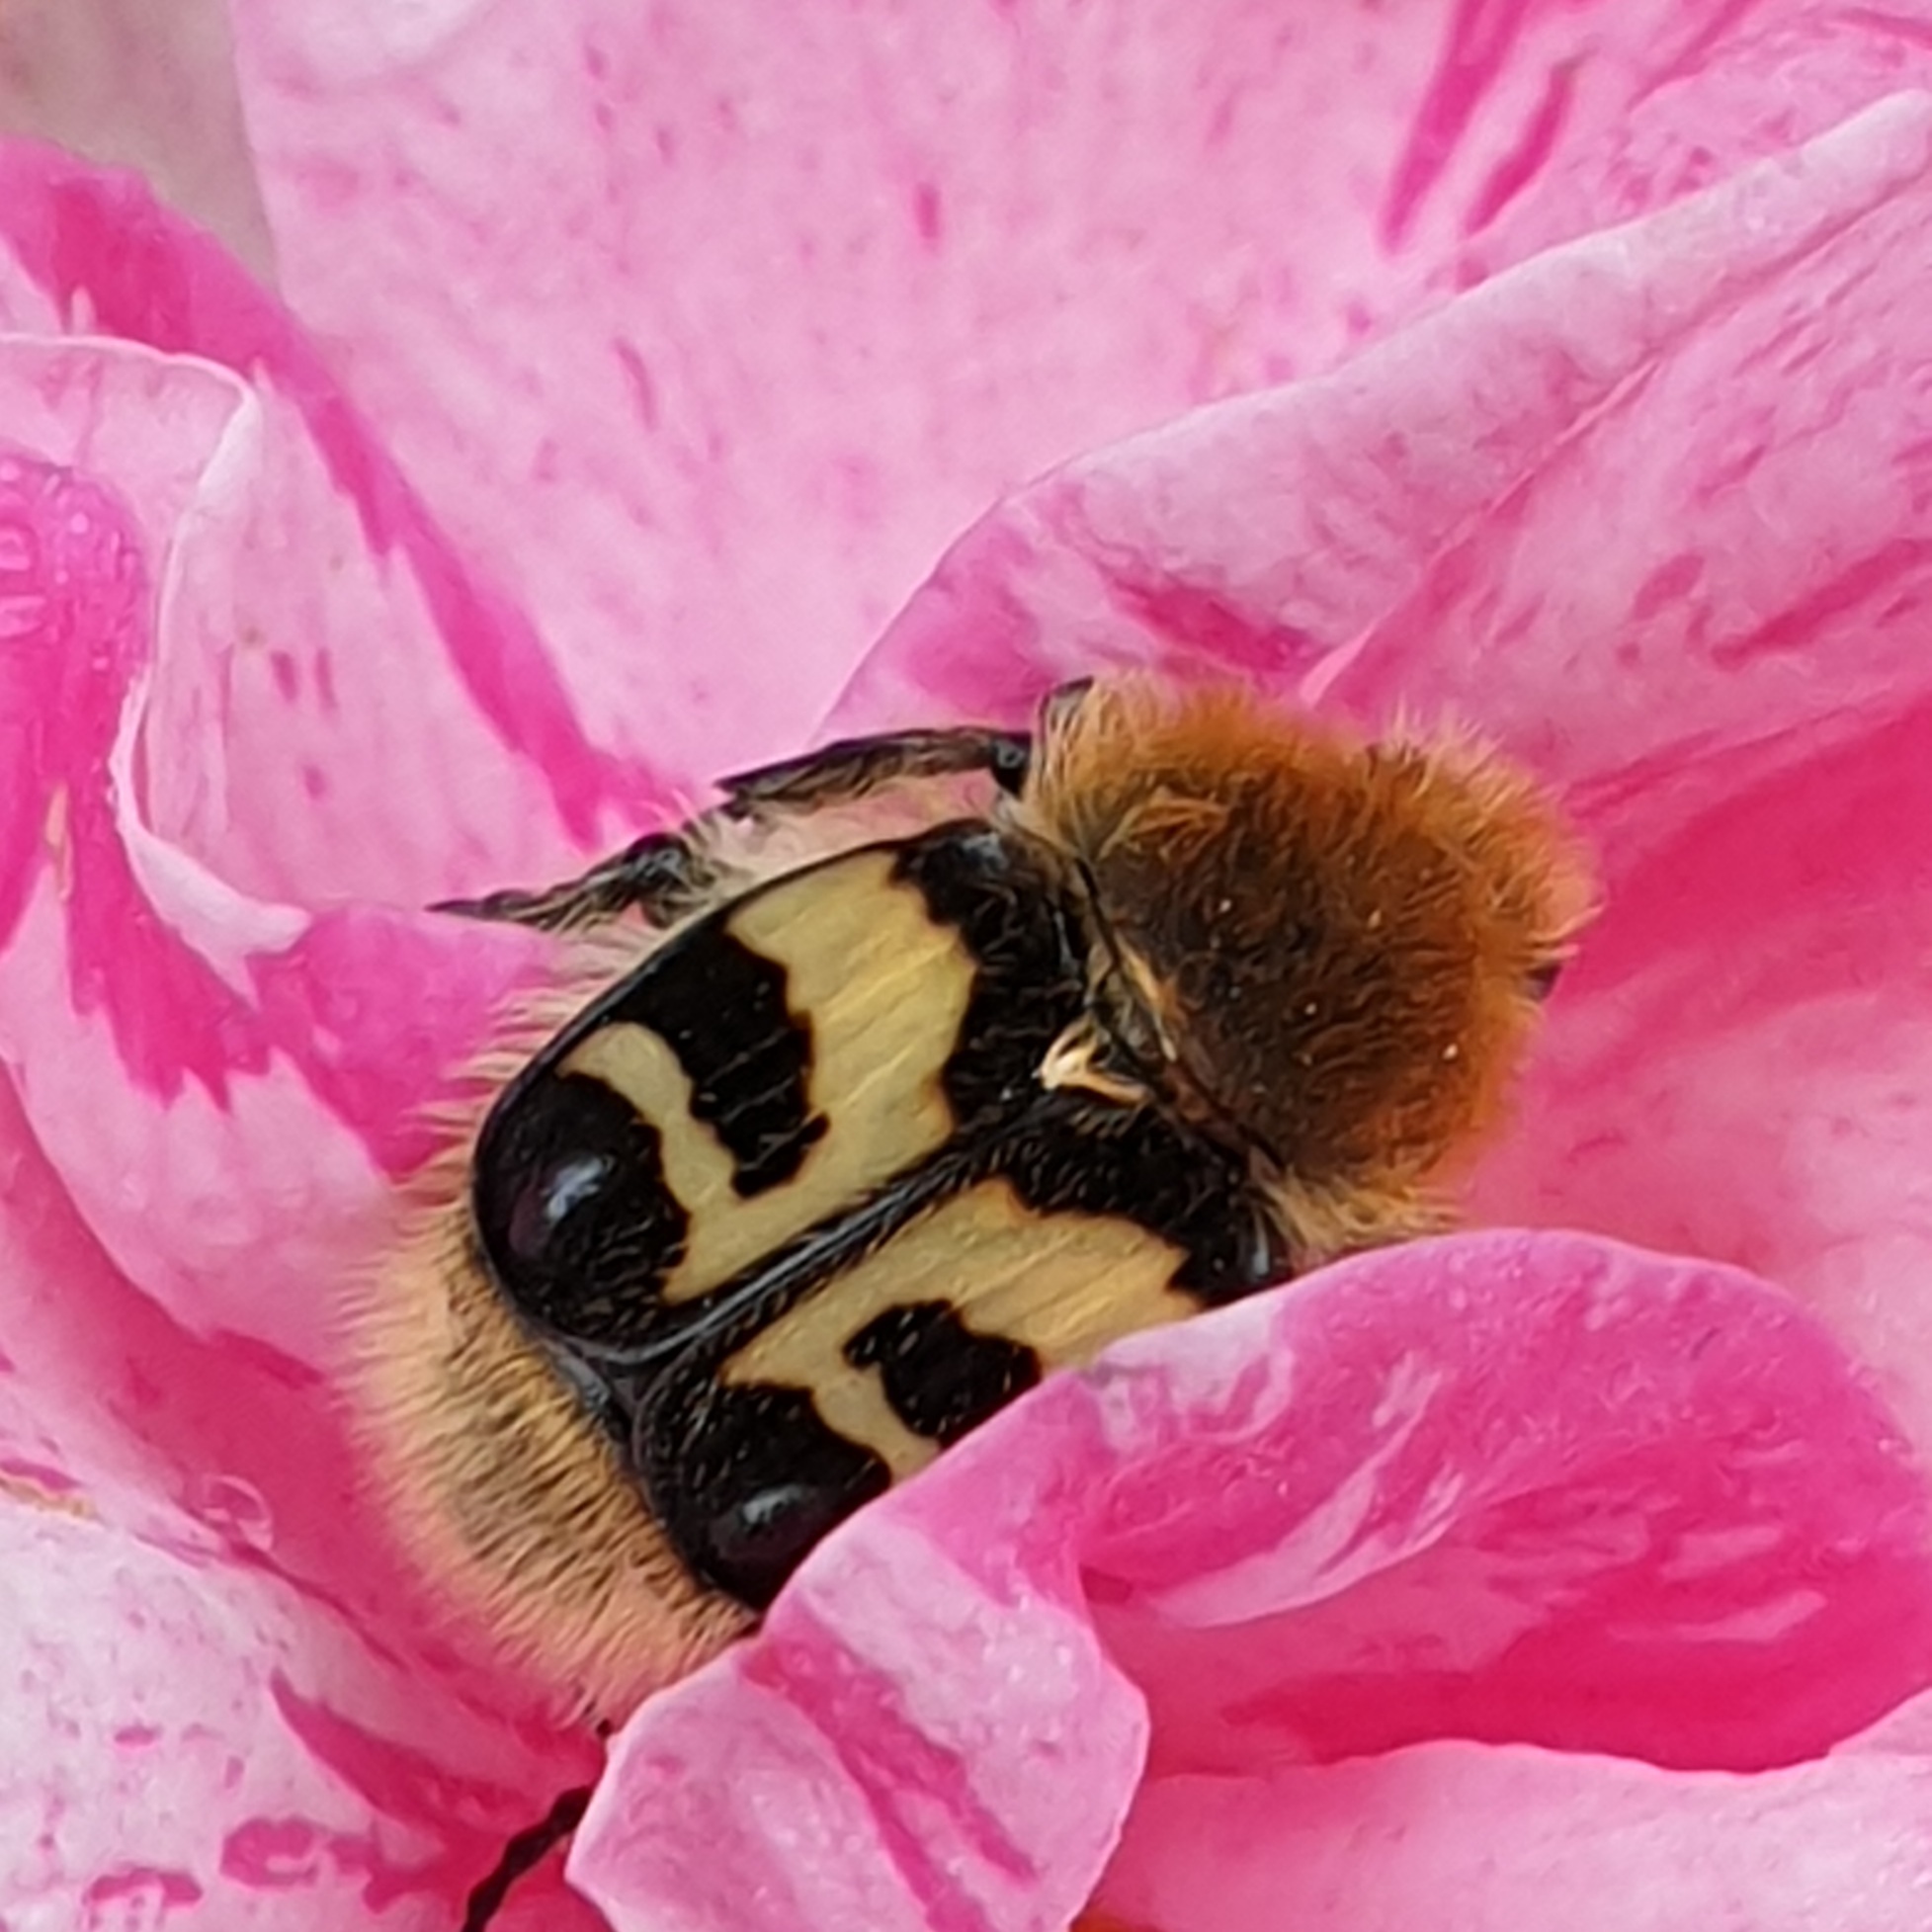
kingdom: Animalia
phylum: Arthropoda
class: Insecta
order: Coleoptera
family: Scarabaeidae
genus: Trichius
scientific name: Trichius fasciatus
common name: Bee beetle
